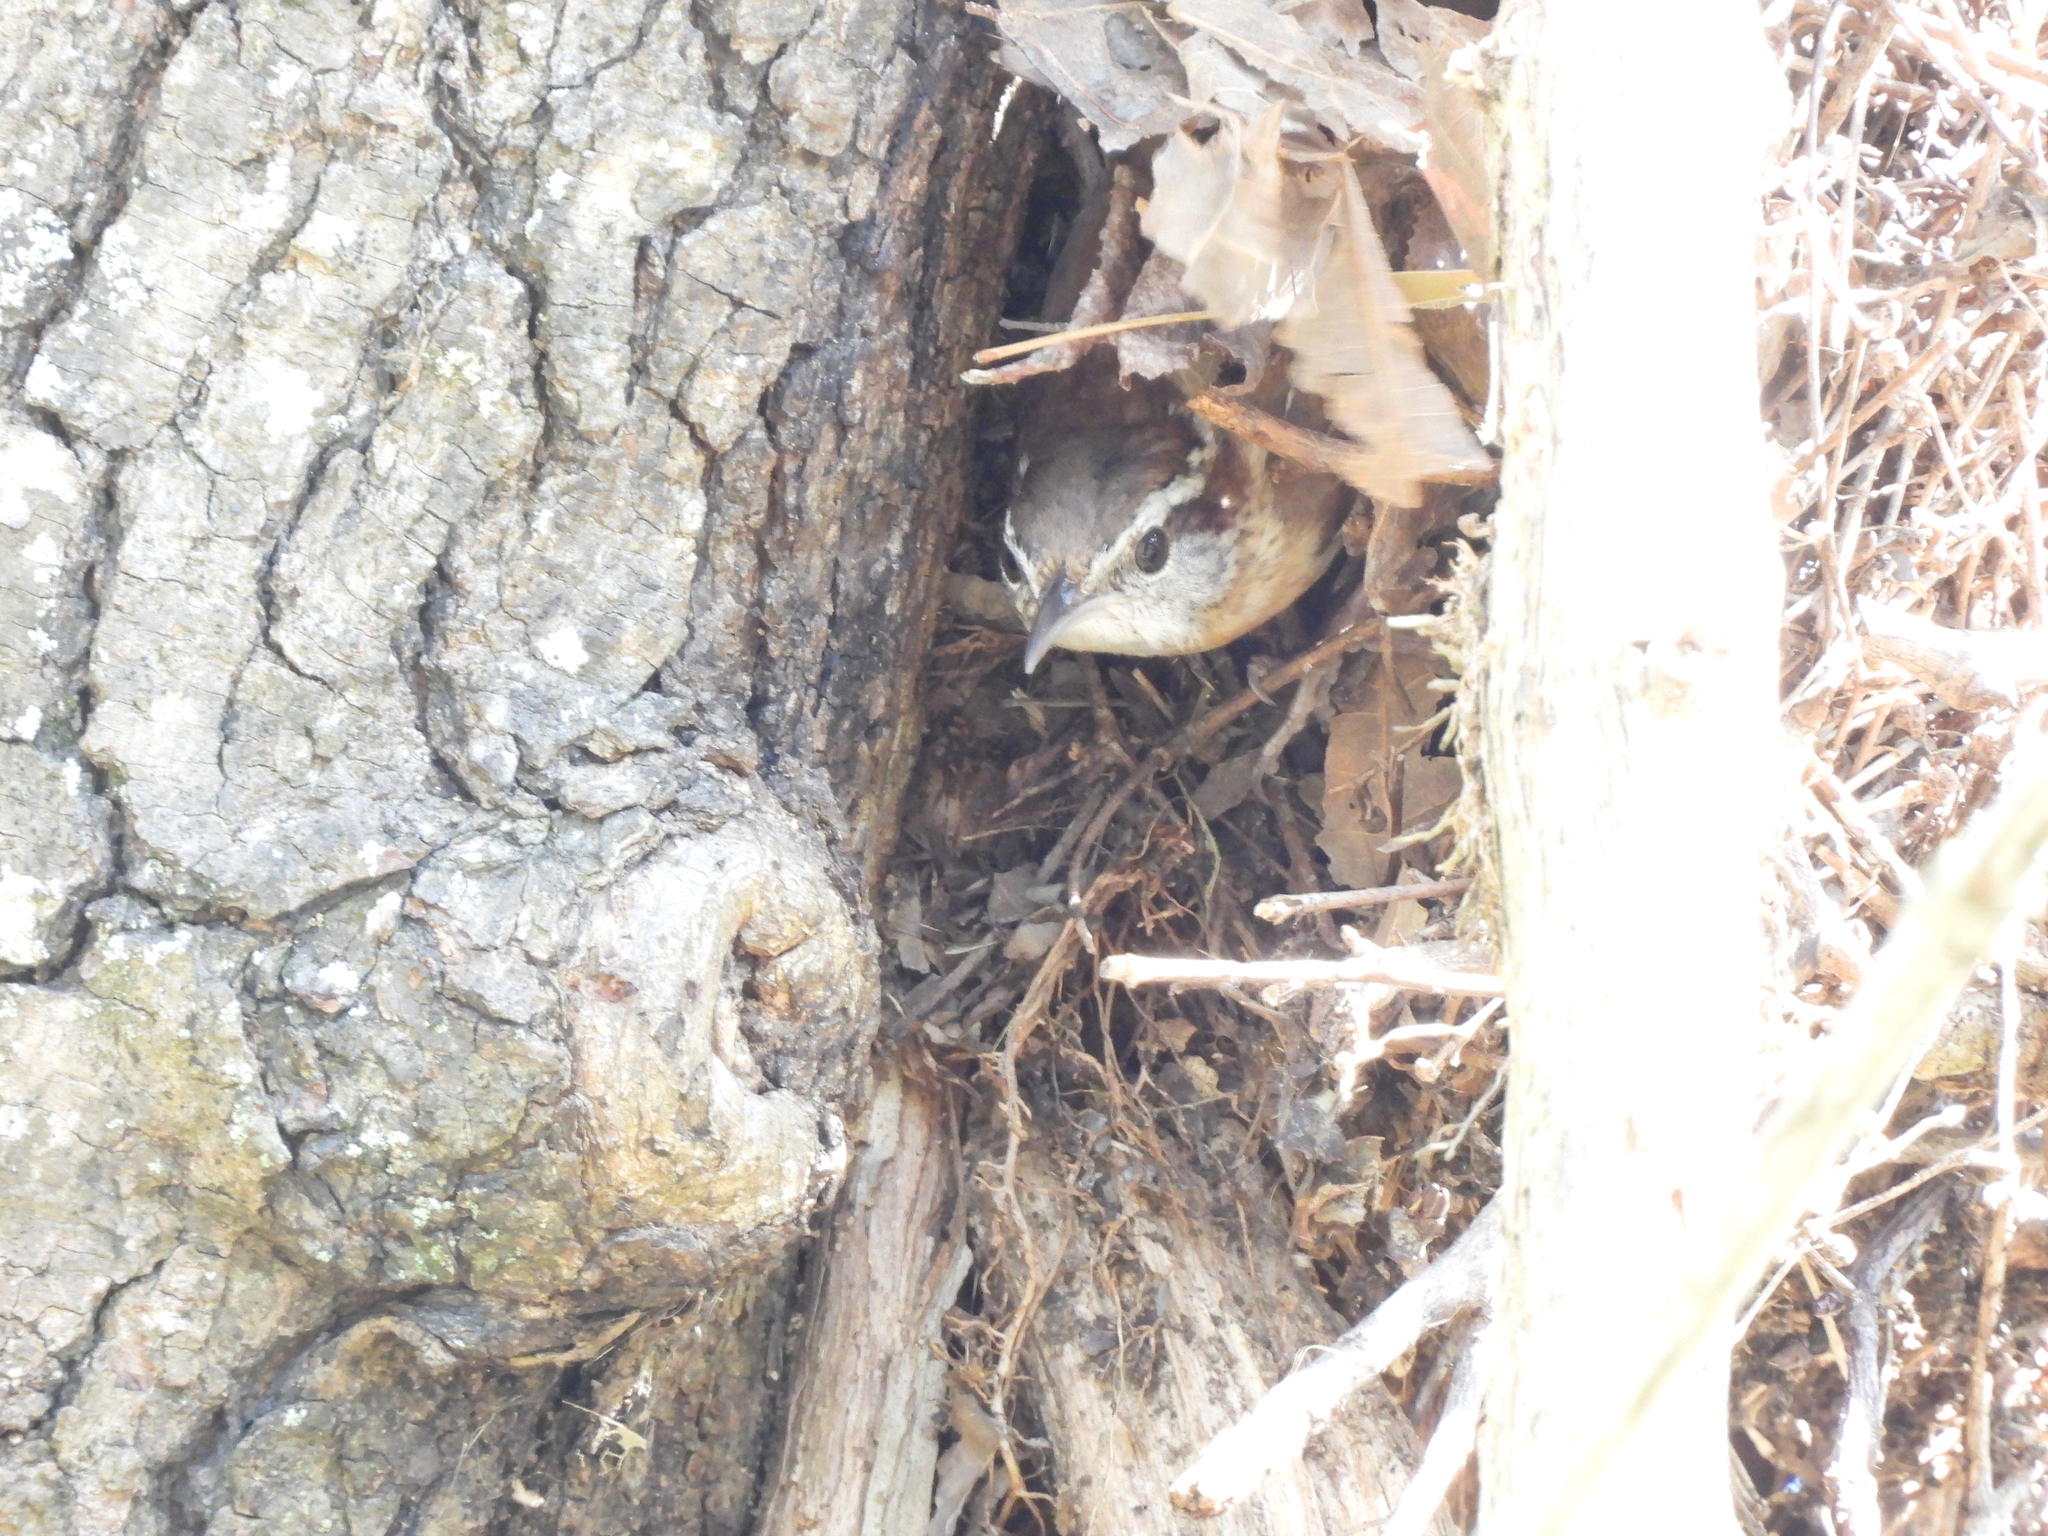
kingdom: Animalia
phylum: Chordata
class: Aves
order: Passeriformes
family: Troglodytidae
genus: Thryothorus
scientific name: Thryothorus ludovicianus
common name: Carolina wren
